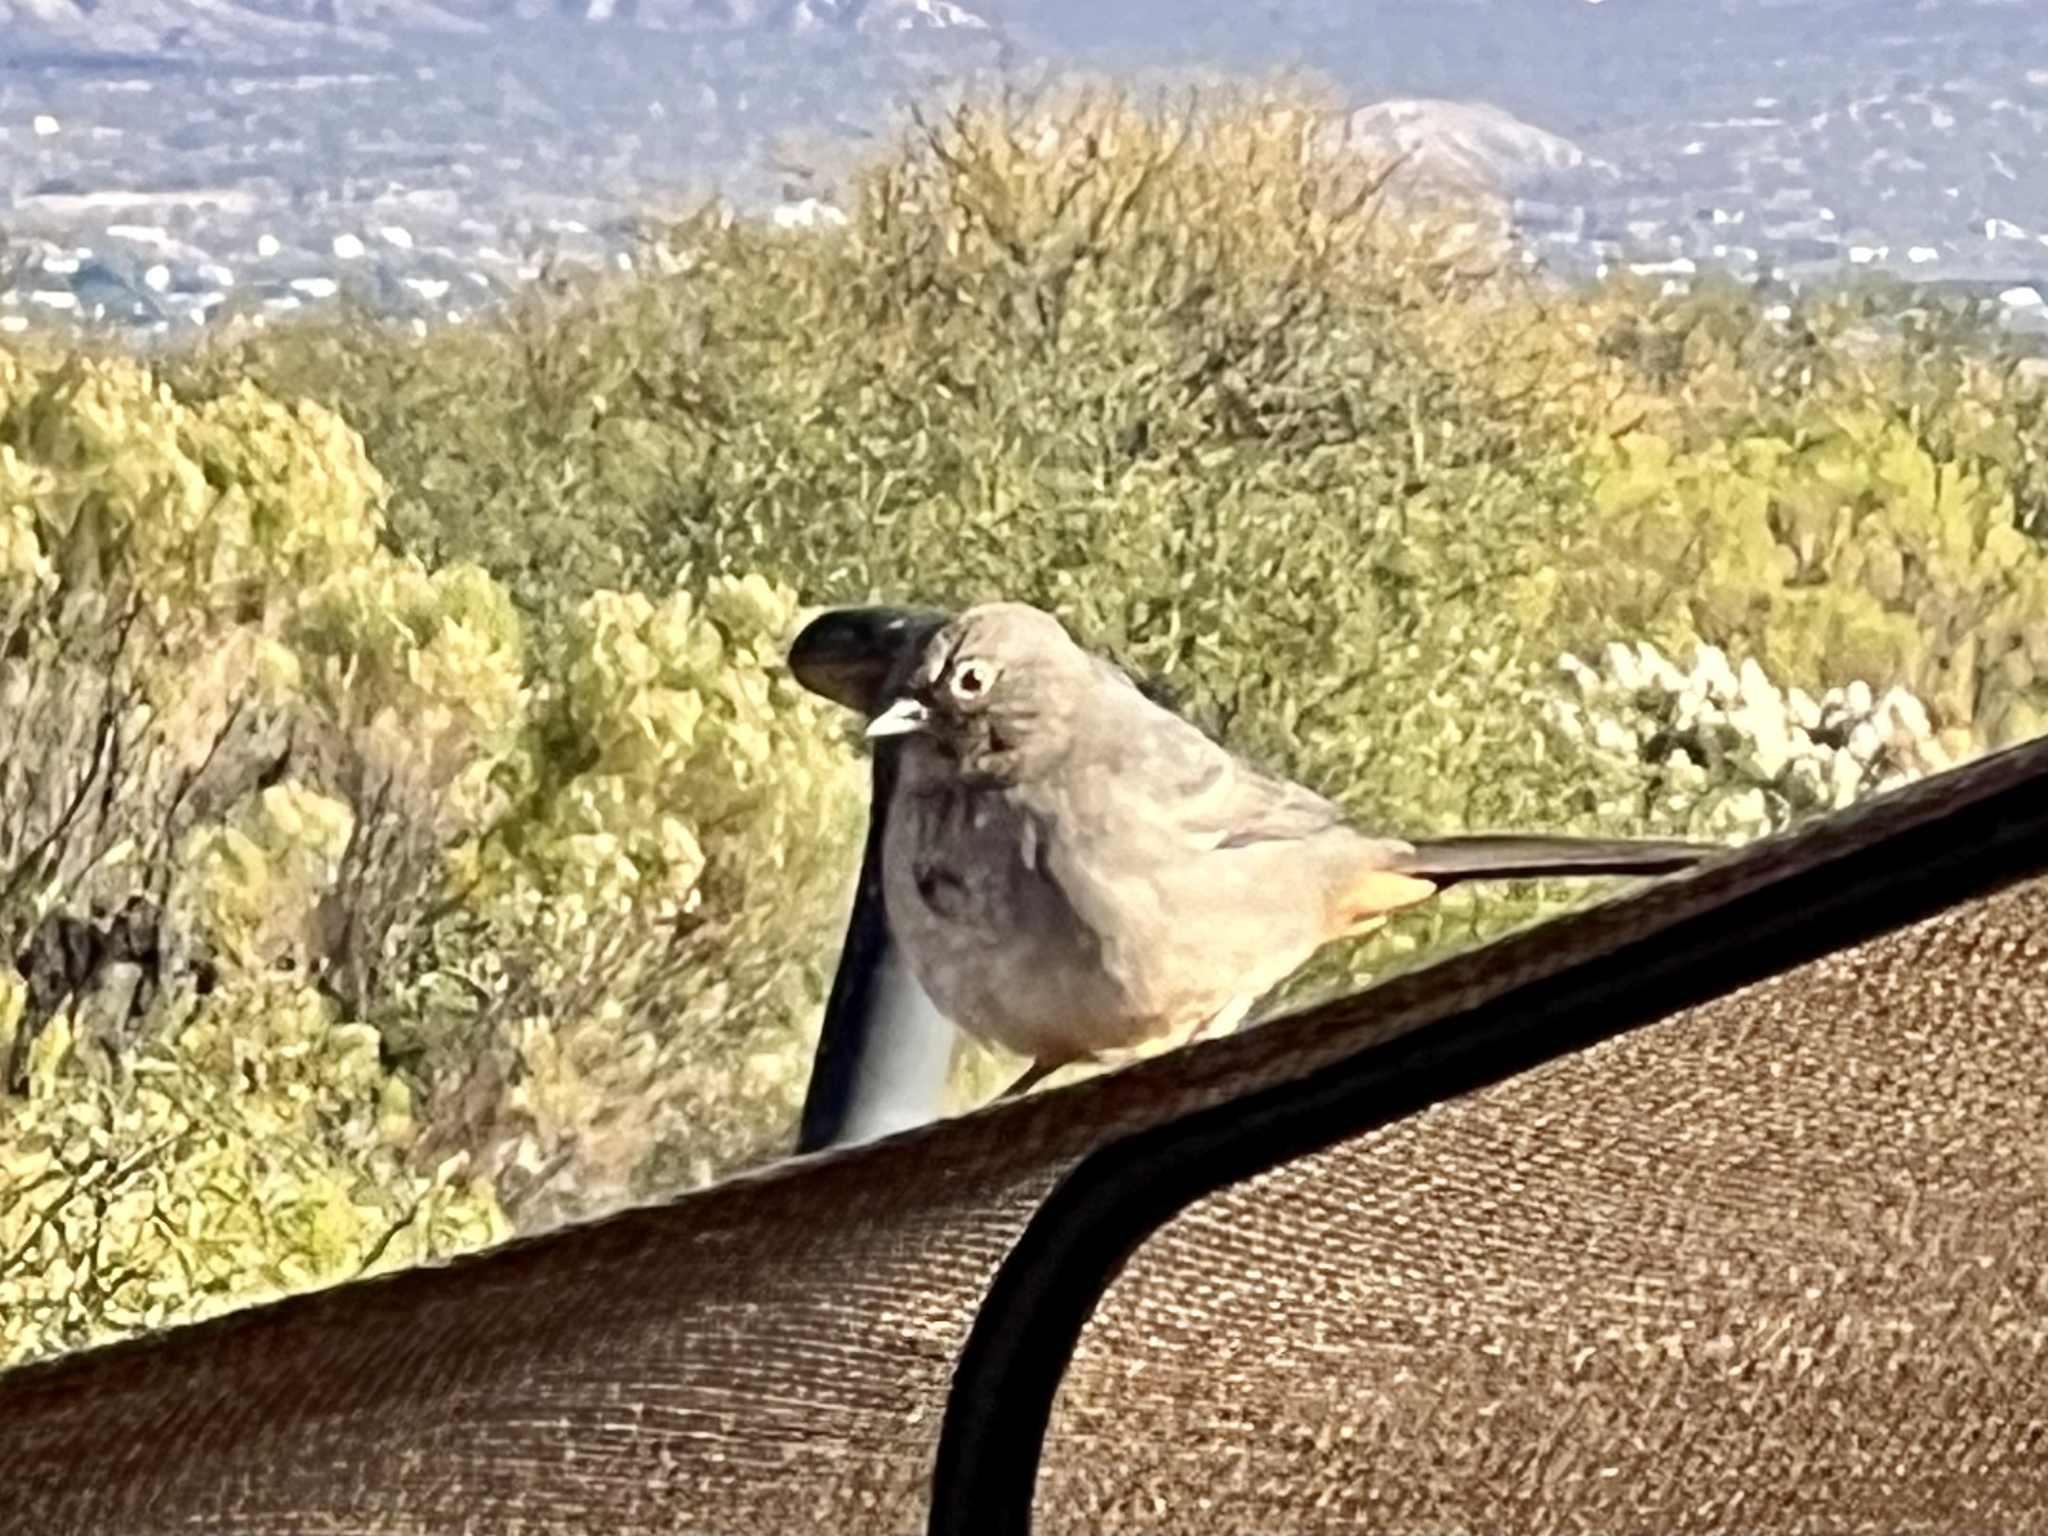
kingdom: Animalia
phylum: Chordata
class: Aves
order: Passeriformes
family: Passerellidae
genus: Melozone
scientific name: Melozone fusca
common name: Canyon towhee
